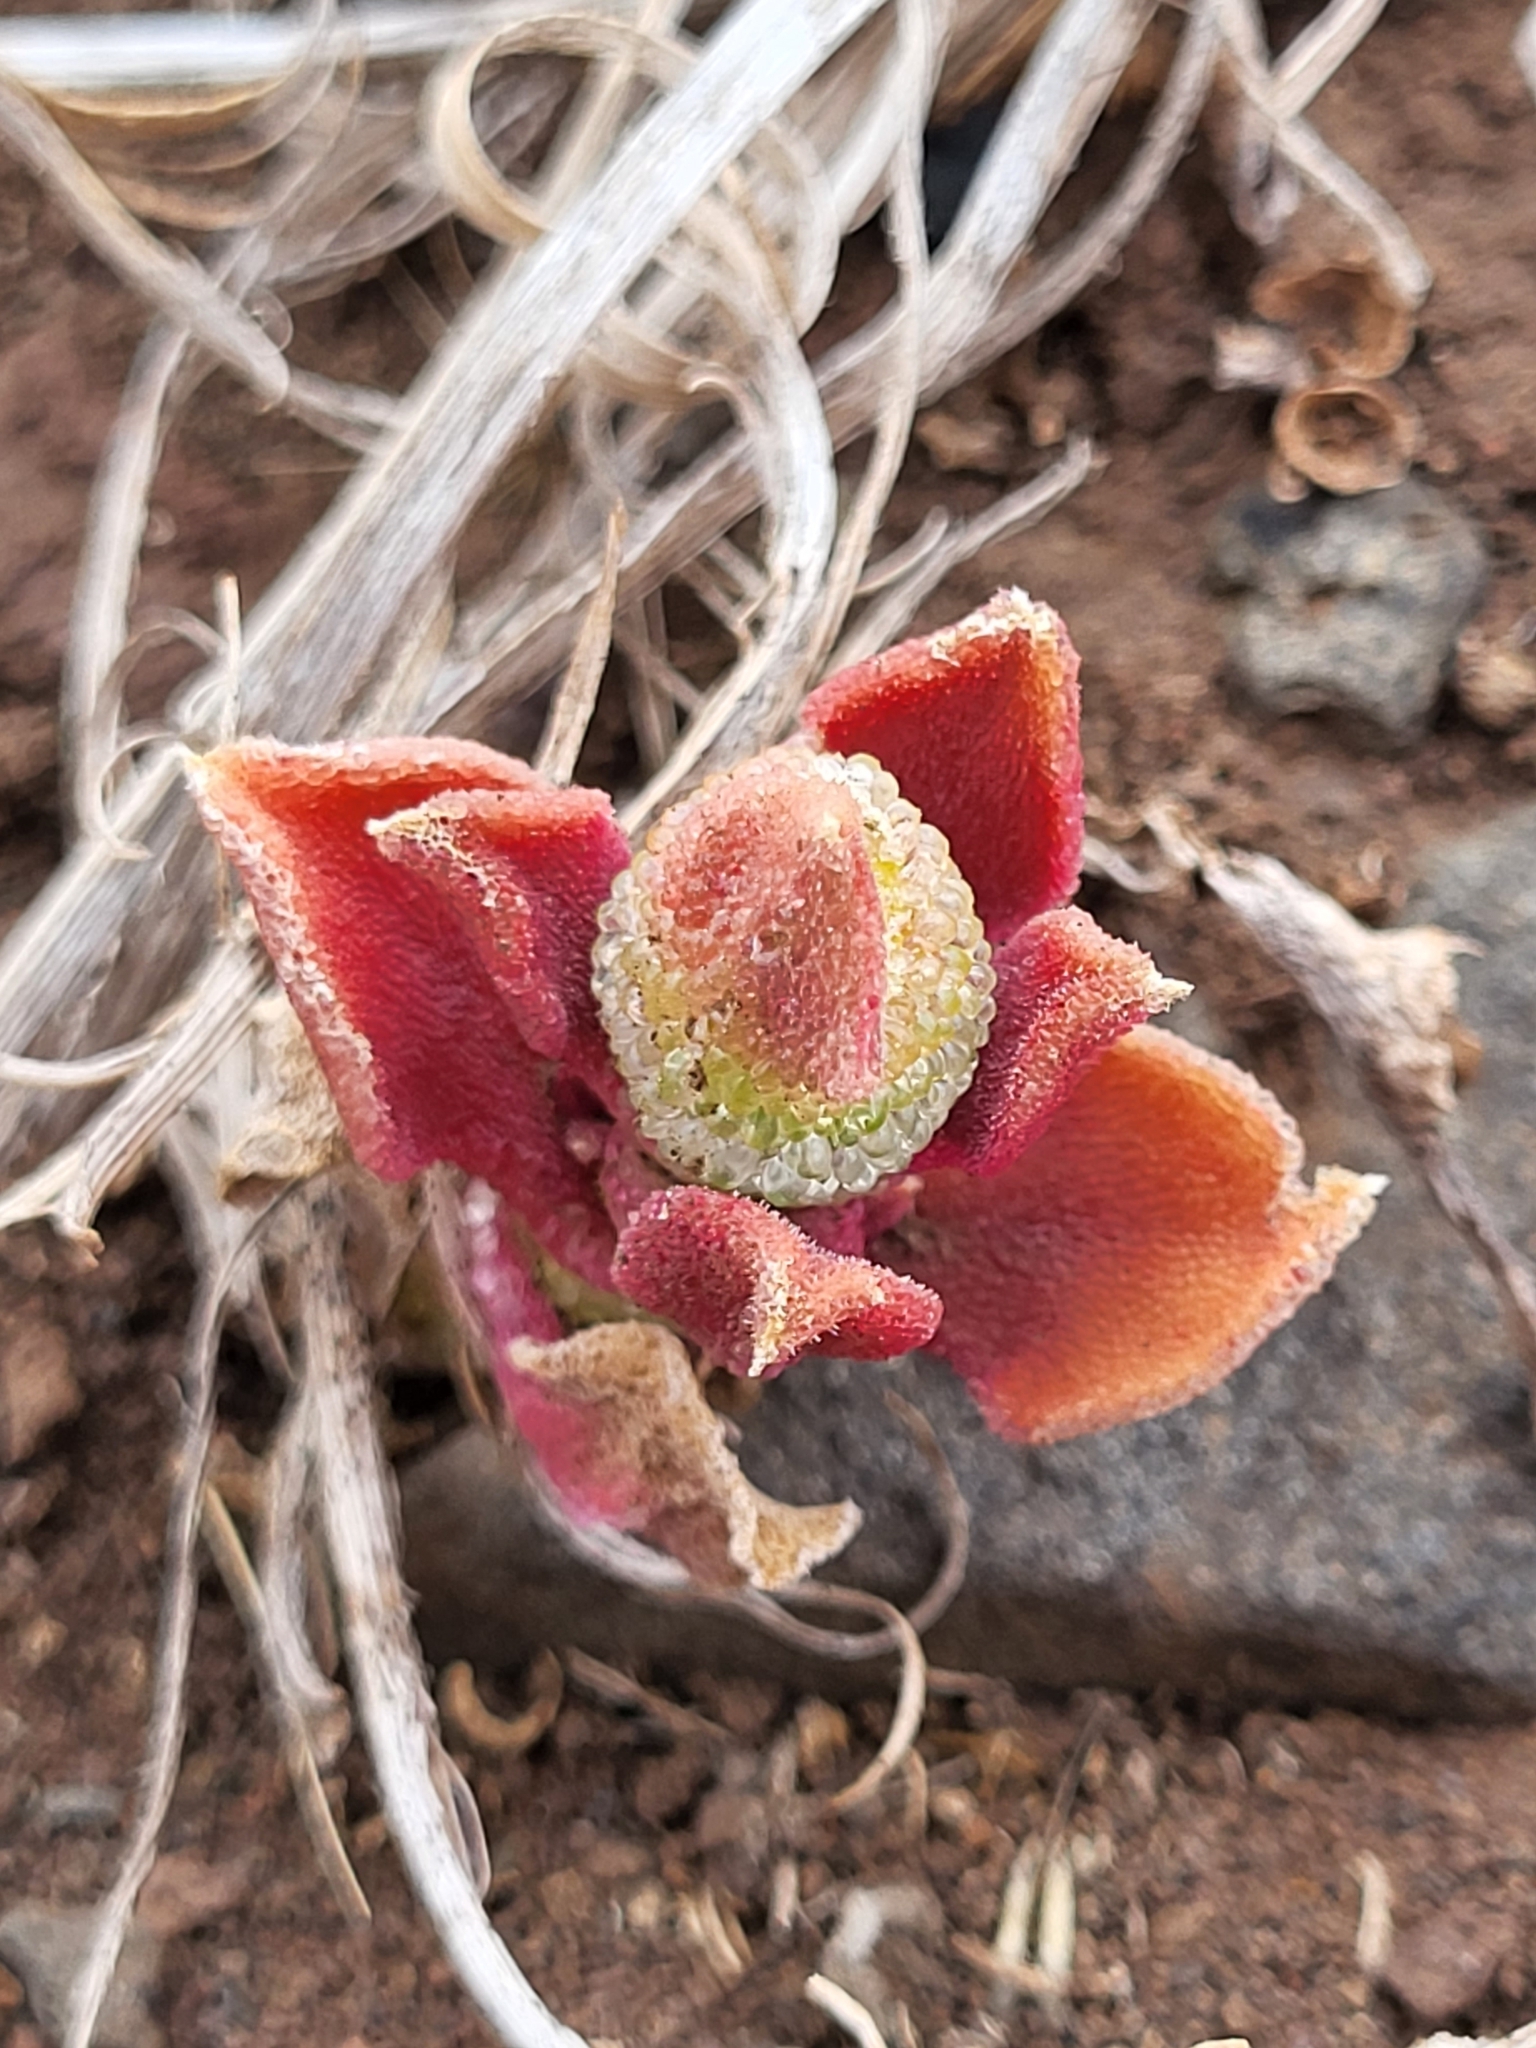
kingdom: Plantae
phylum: Tracheophyta
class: Magnoliopsida
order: Caryophyllales
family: Aizoaceae
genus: Mesembryanthemum
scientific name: Mesembryanthemum crystallinum
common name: Common iceplant
